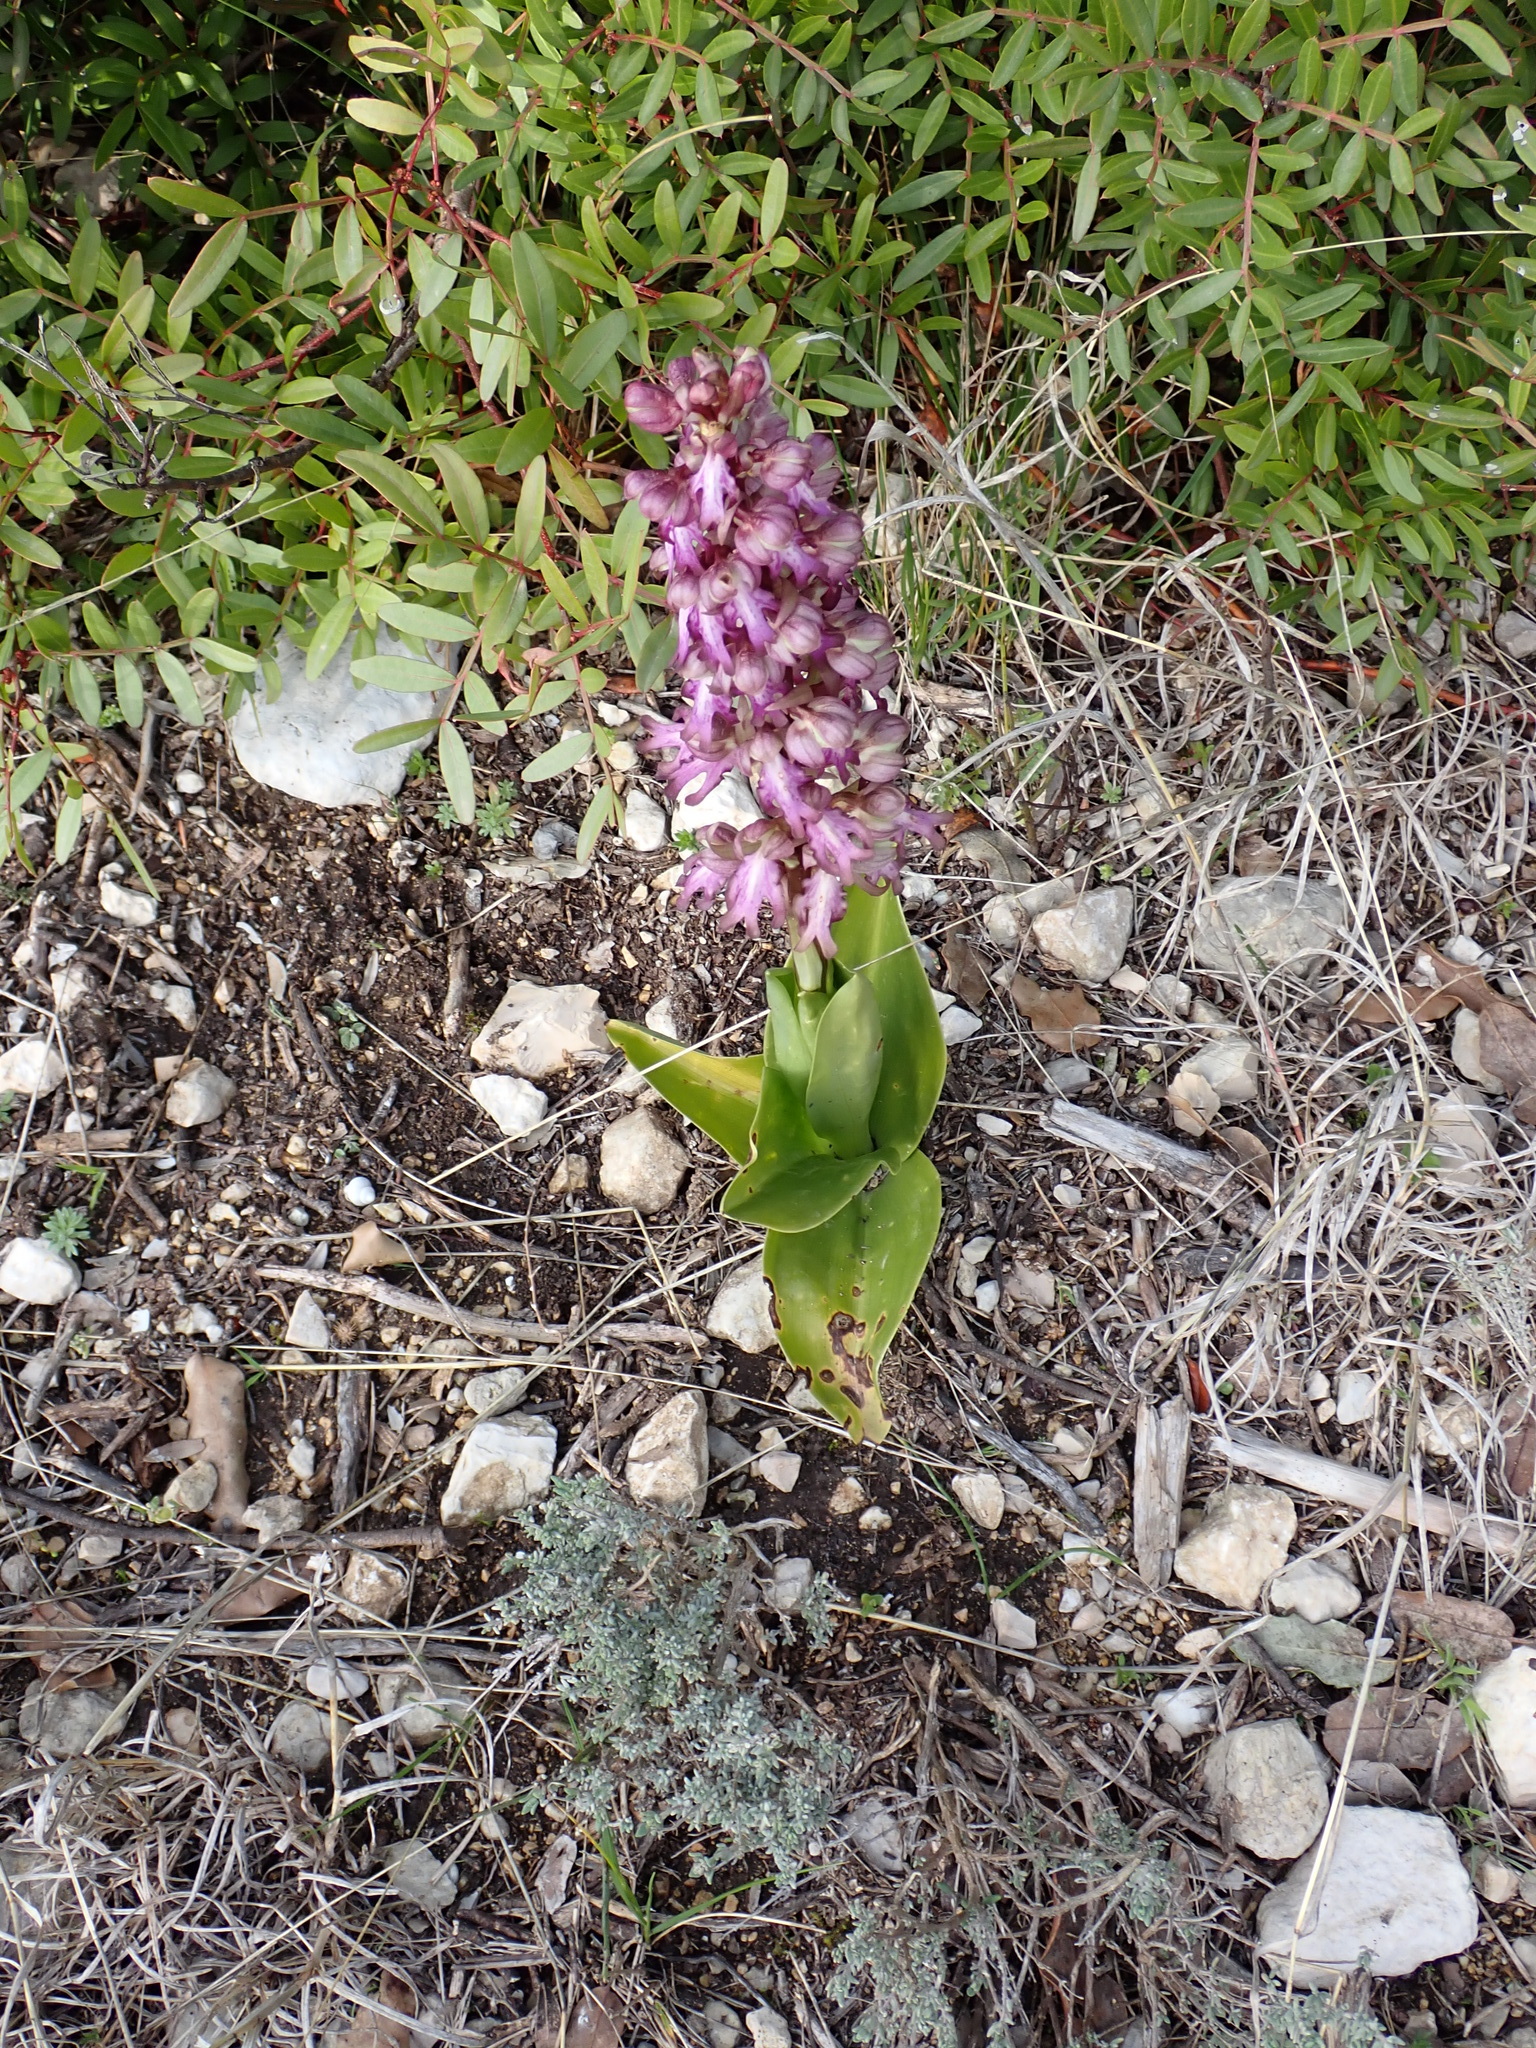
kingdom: Plantae
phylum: Tracheophyta
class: Liliopsida
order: Asparagales
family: Orchidaceae
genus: Himantoglossum
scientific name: Himantoglossum robertianum
